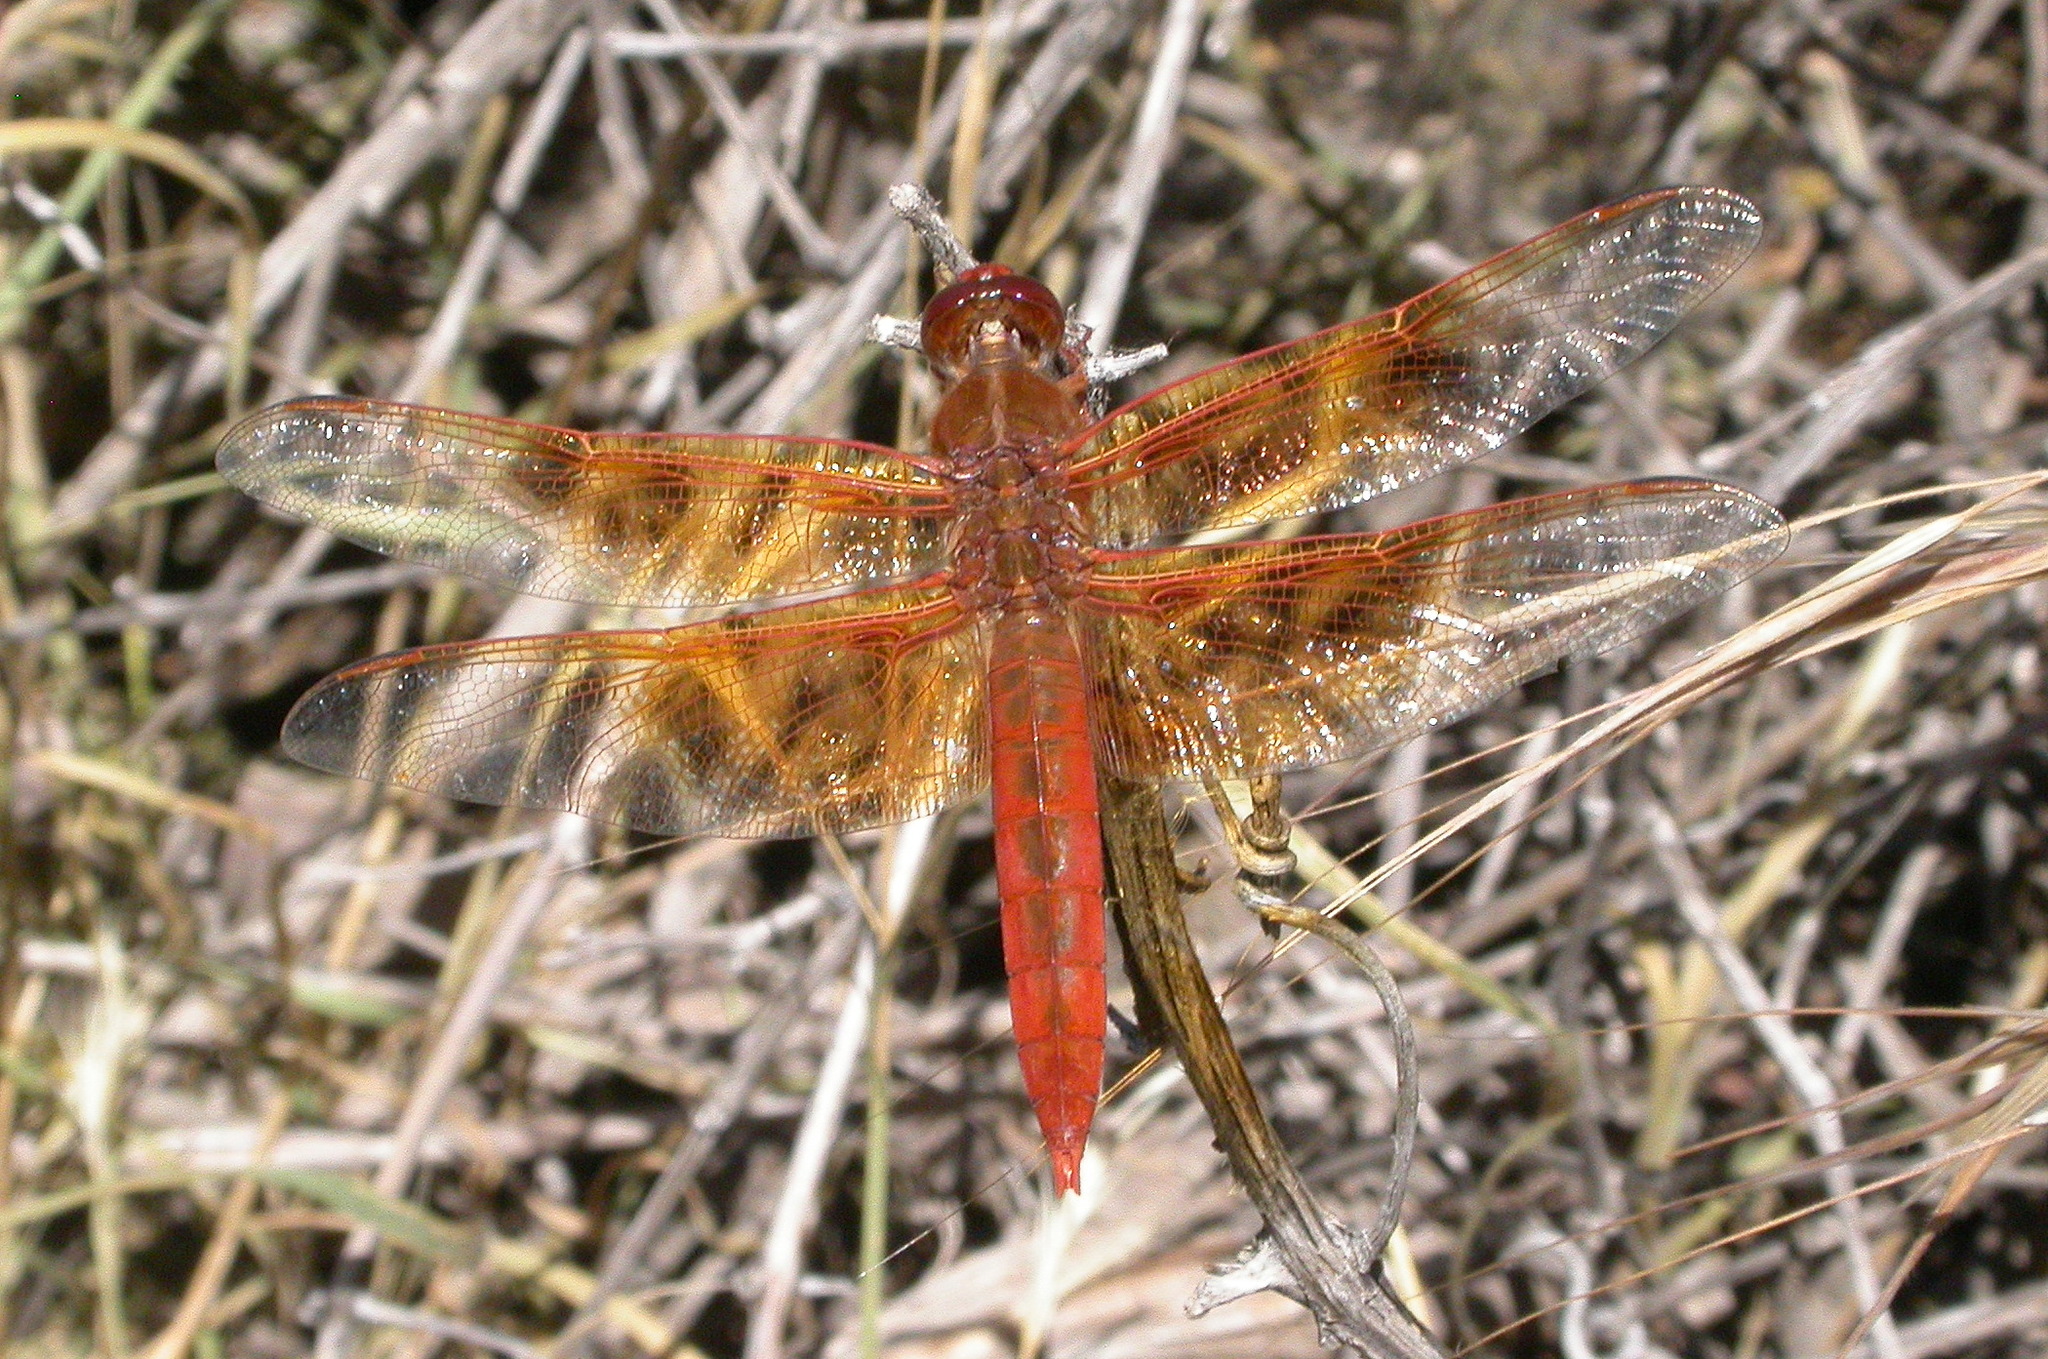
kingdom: Animalia
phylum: Arthropoda
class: Insecta
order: Odonata
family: Libellulidae
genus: Libellula
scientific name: Libellula saturata
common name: Flame skimmer
